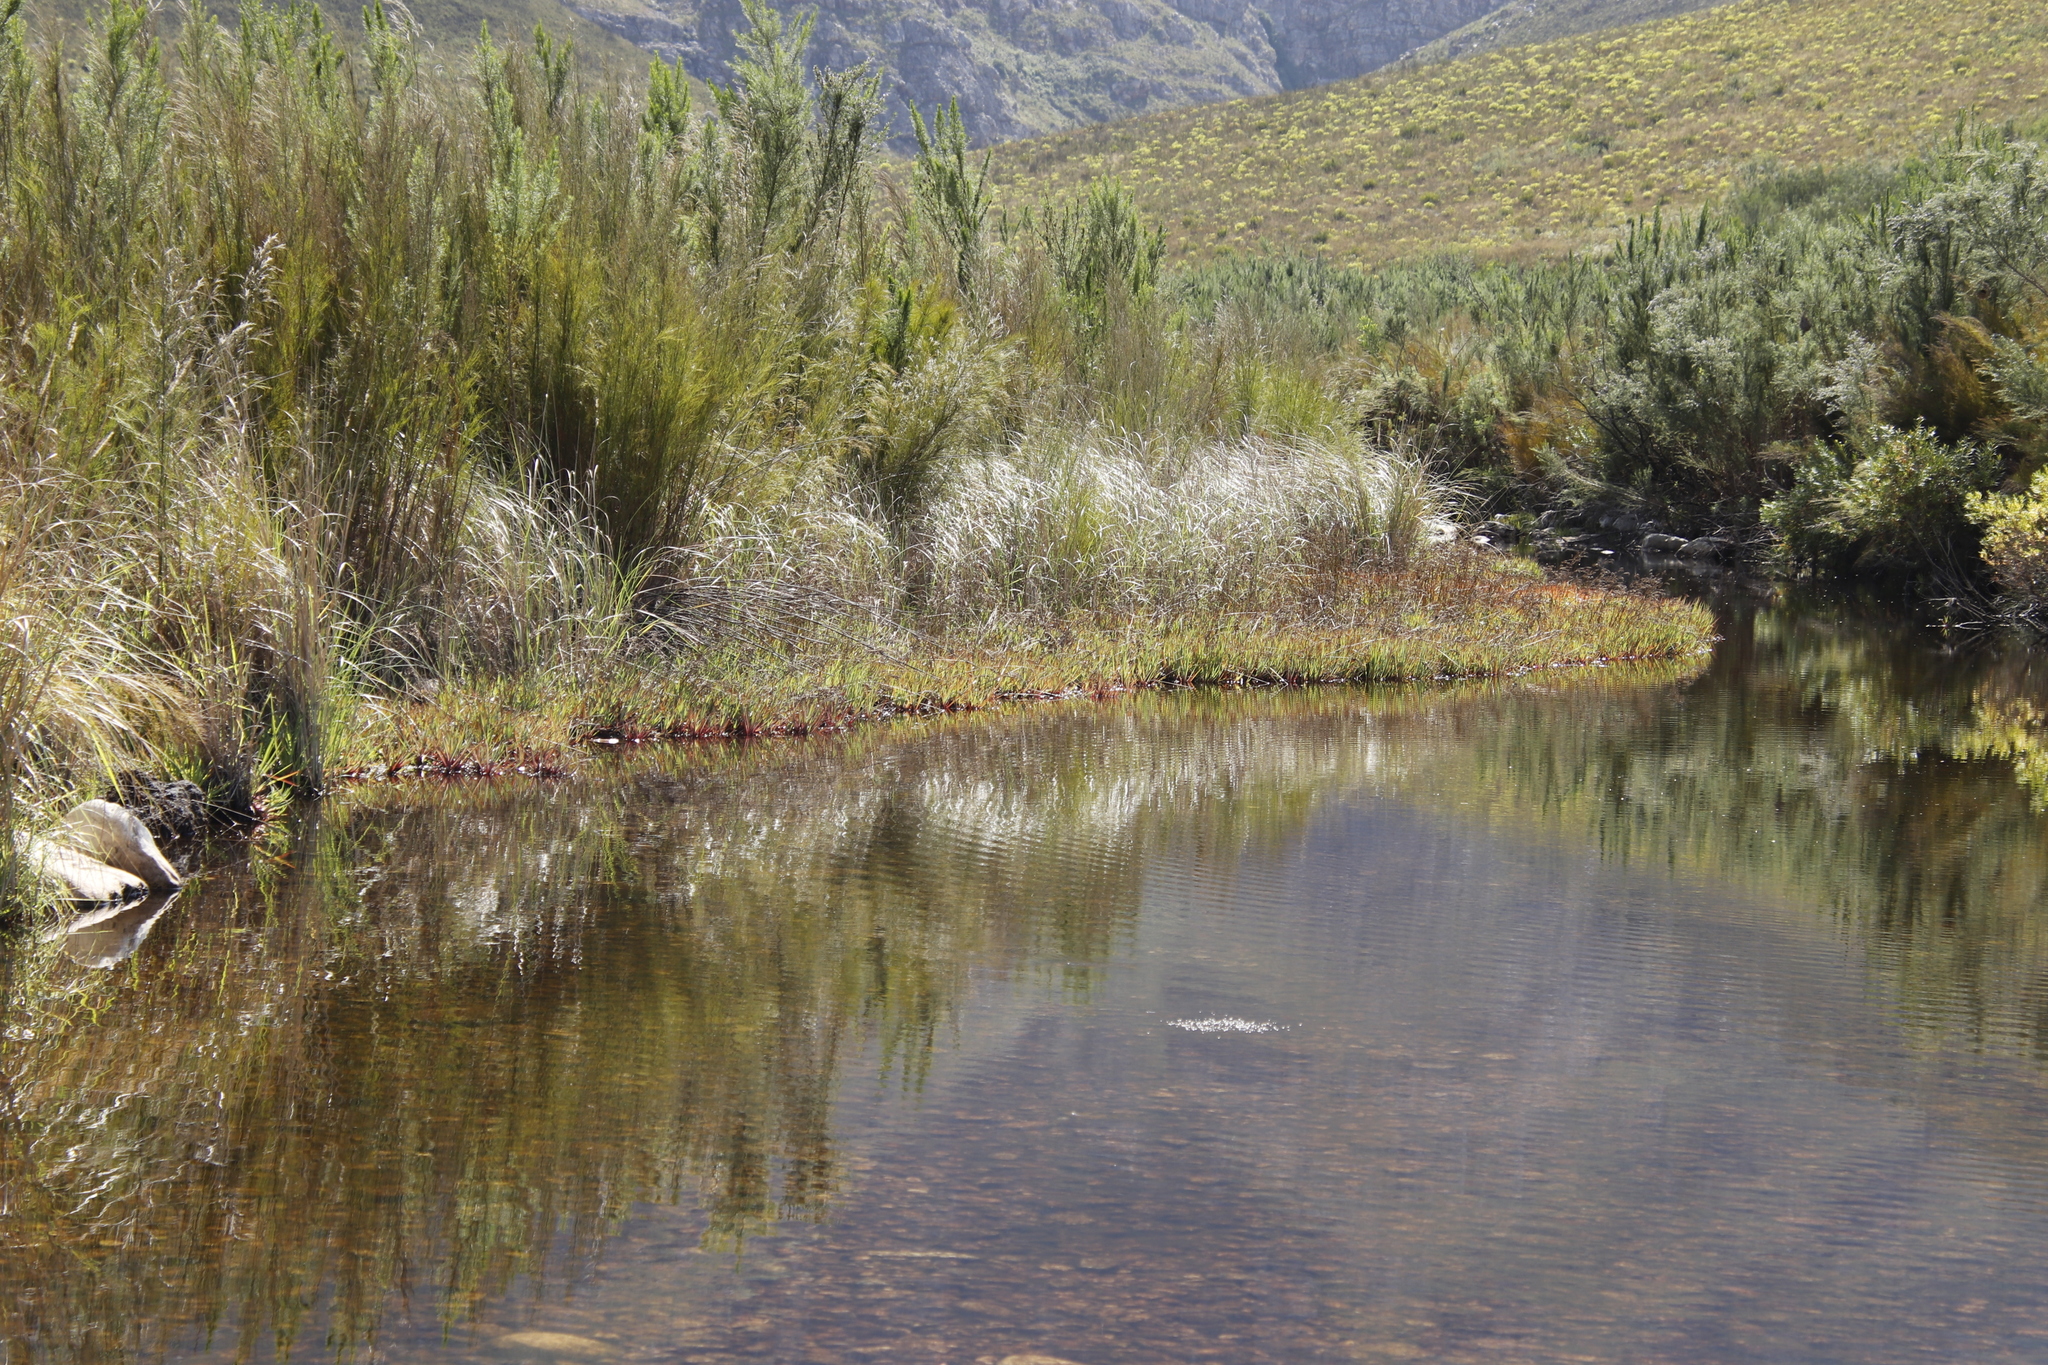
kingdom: Plantae
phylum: Tracheophyta
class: Liliopsida
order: Poales
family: Juncaceae
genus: Juncus
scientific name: Juncus lomatophyllus
